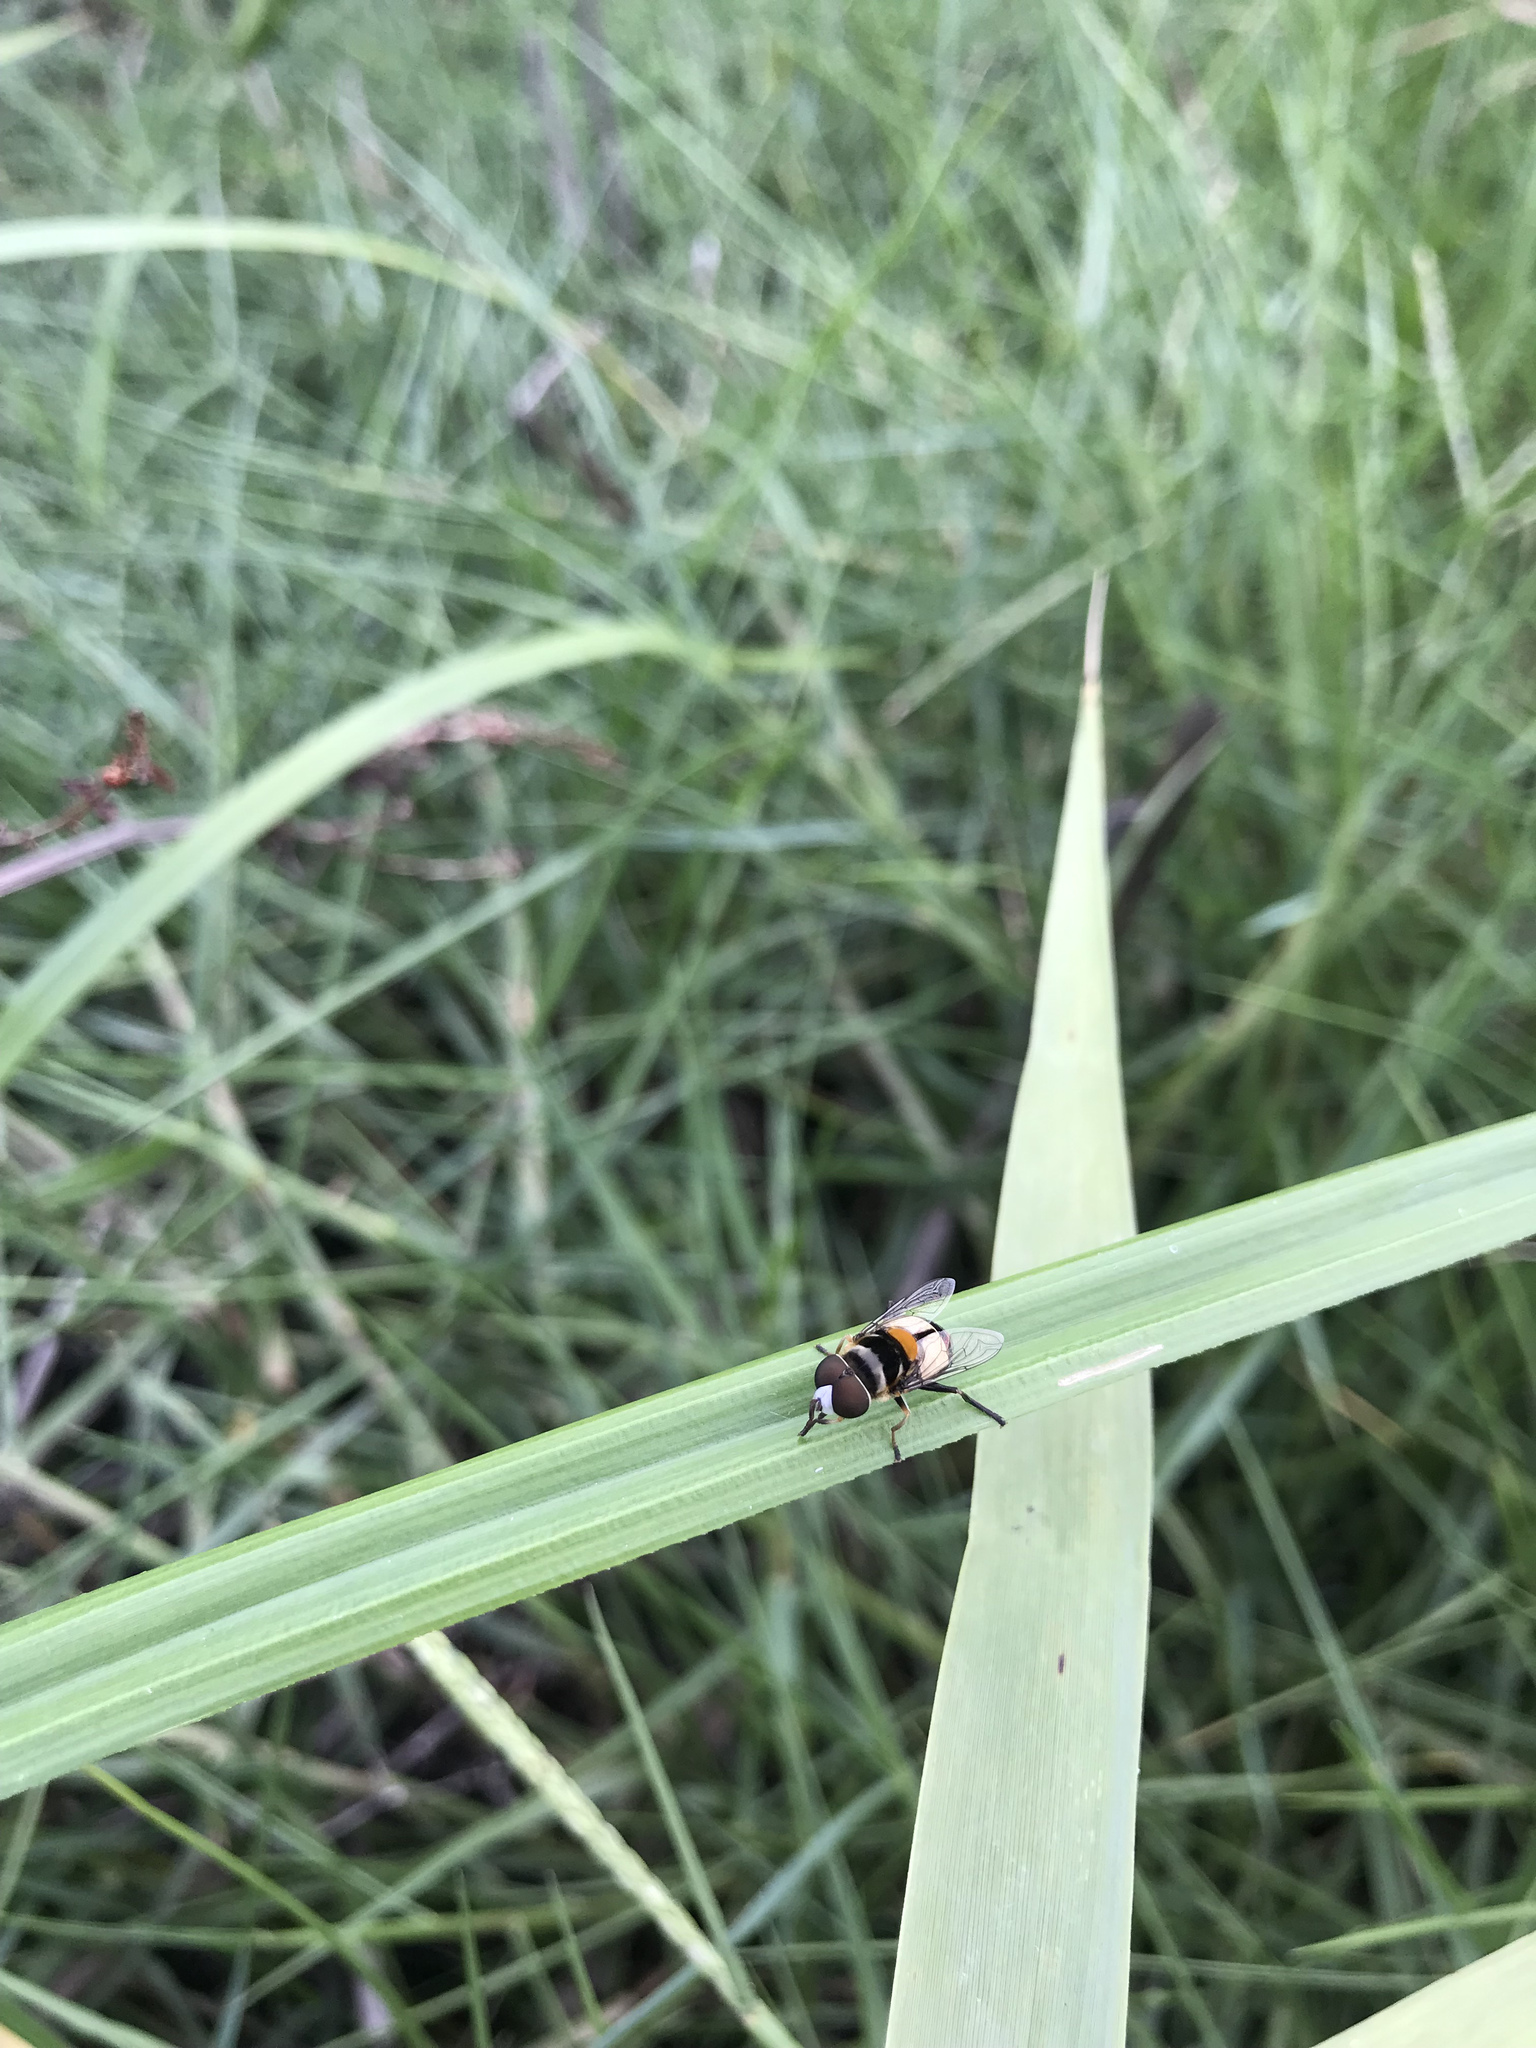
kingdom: Animalia
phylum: Arthropoda
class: Insecta
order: Diptera
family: Syrphidae
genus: Palpada
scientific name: Palpada albifrons
